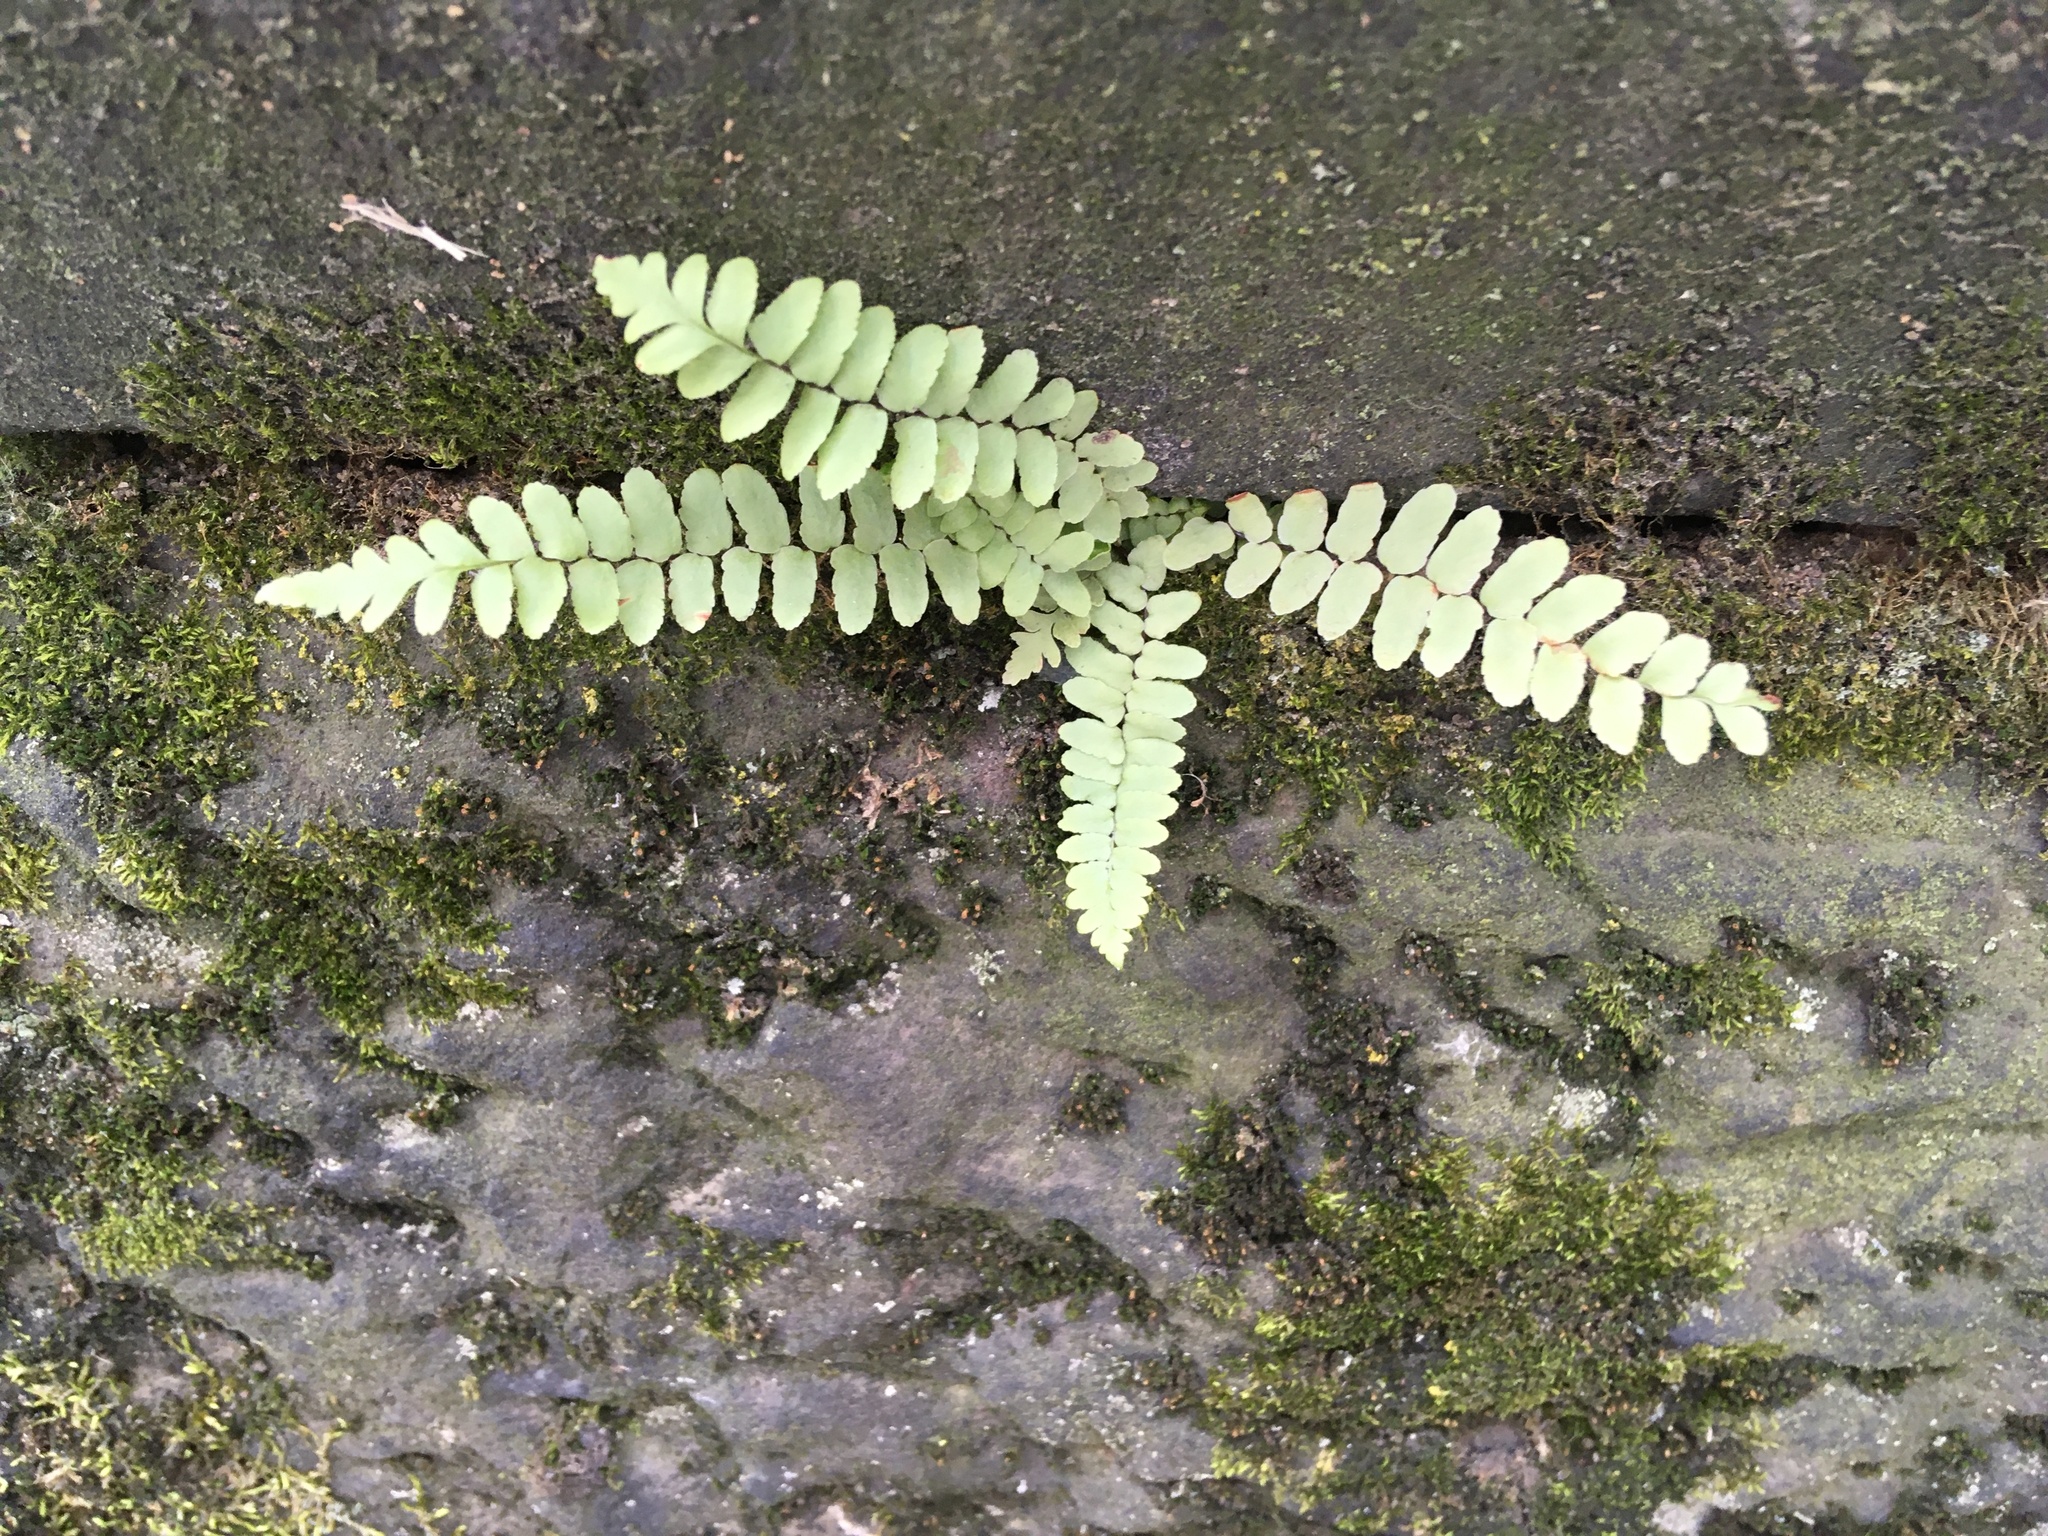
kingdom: Plantae
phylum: Tracheophyta
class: Polypodiopsida
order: Polypodiales
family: Aspleniaceae
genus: Asplenium
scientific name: Asplenium platyneuron
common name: Ebony spleenwort
